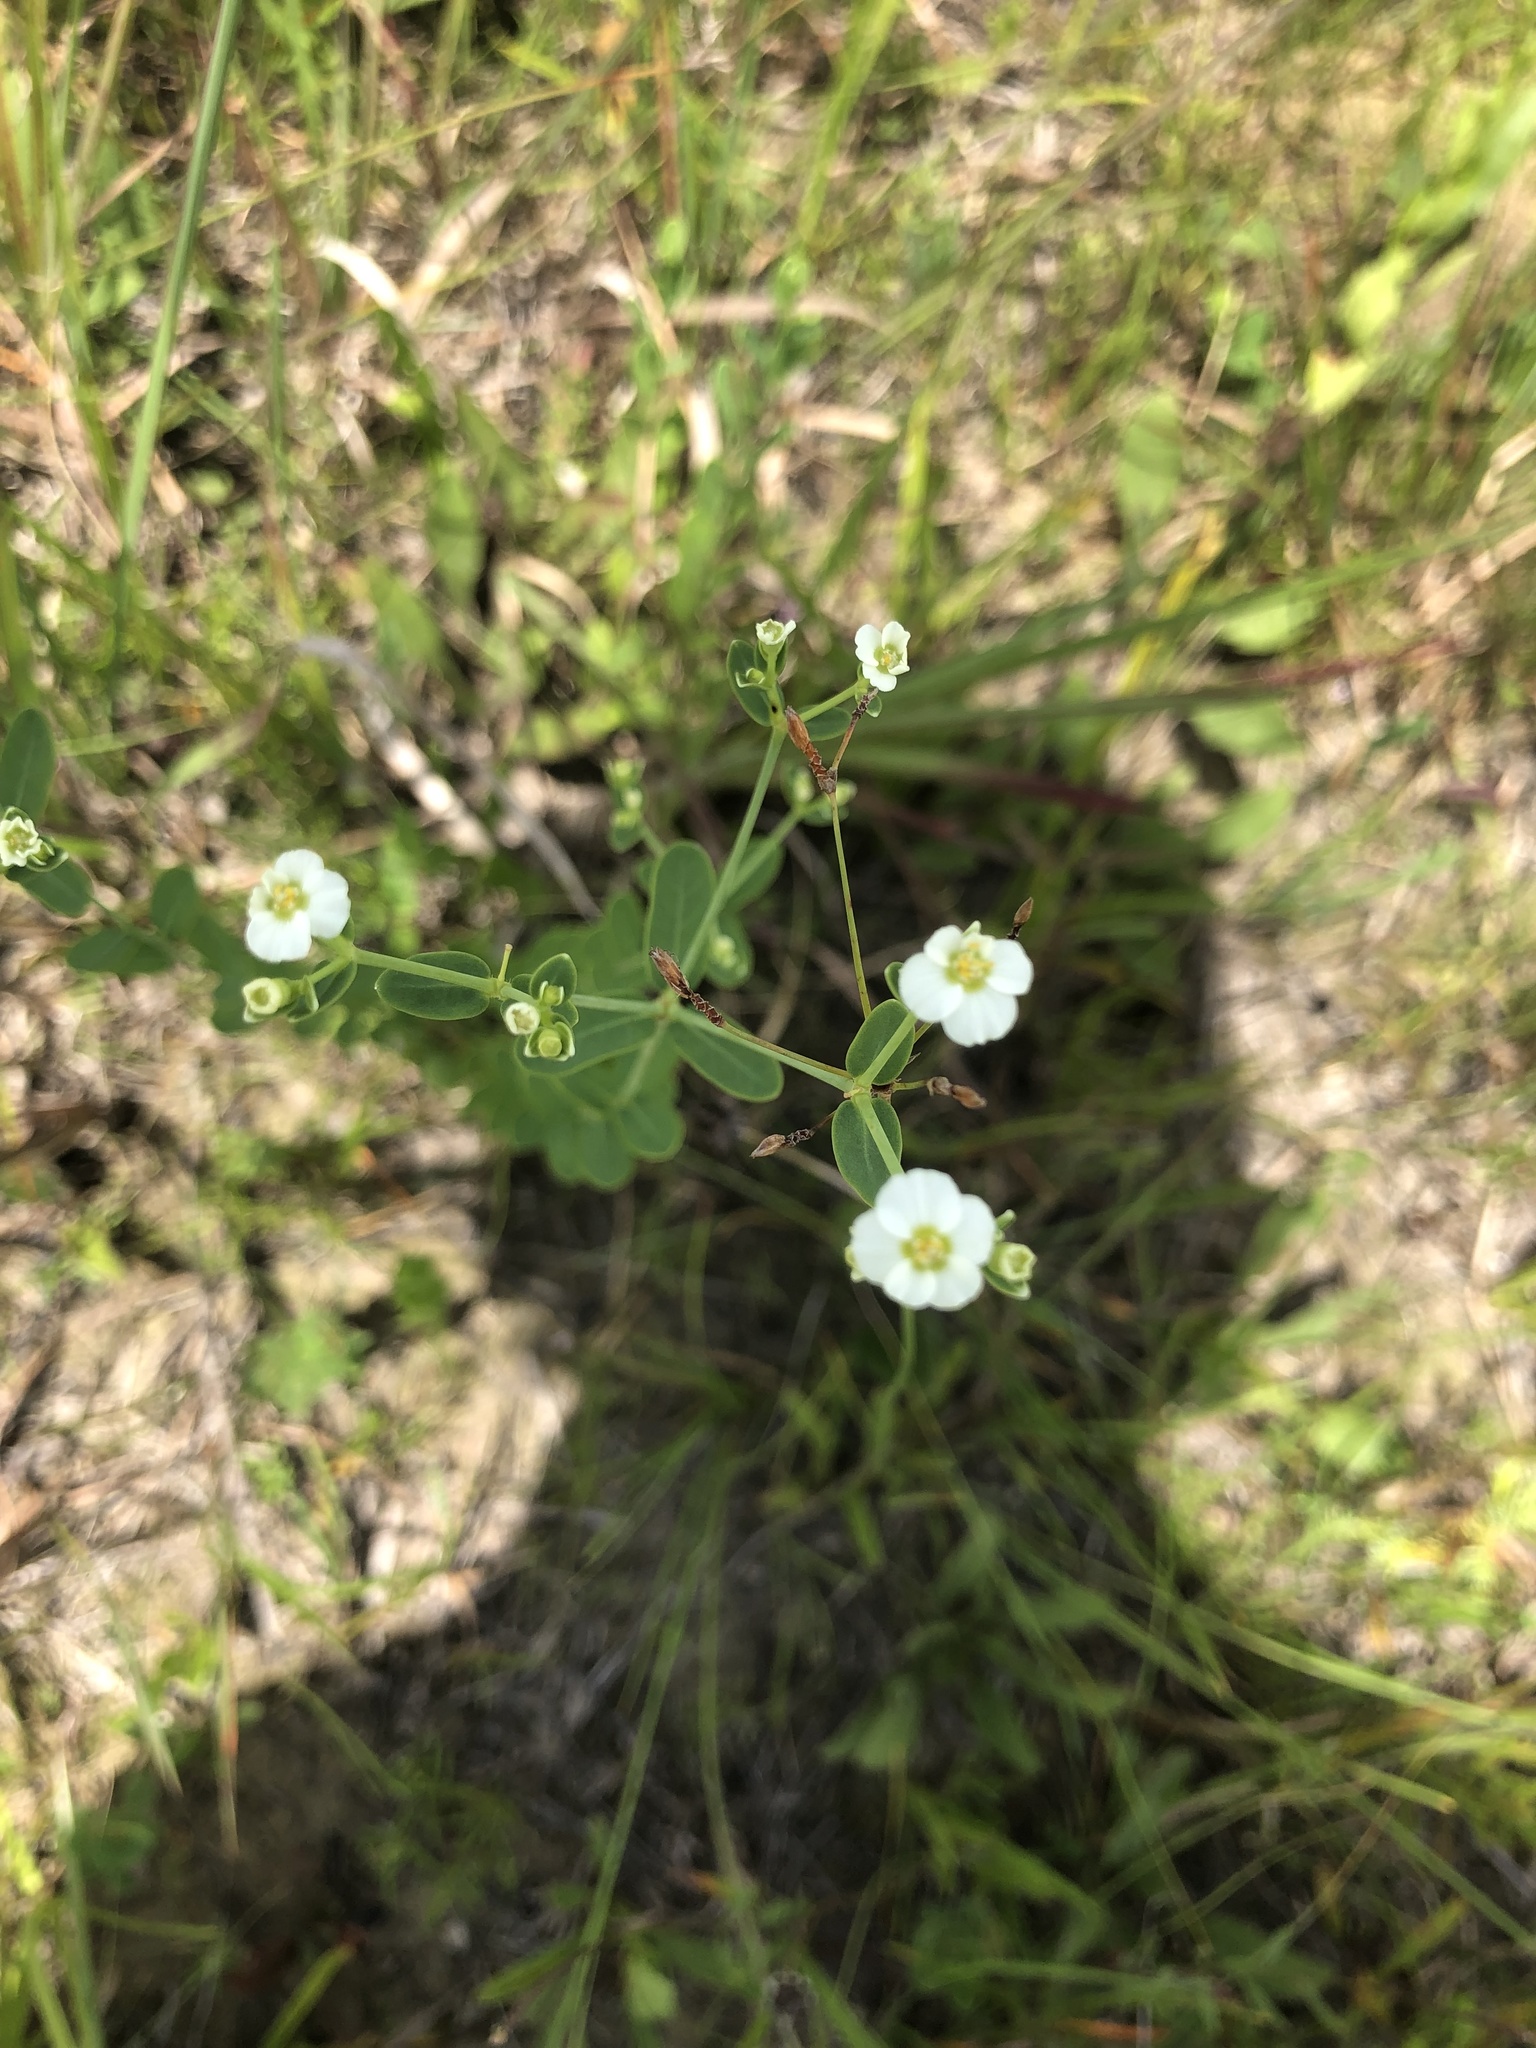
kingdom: Plantae
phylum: Tracheophyta
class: Magnoliopsida
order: Malpighiales
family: Euphorbiaceae
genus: Euphorbia
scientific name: Euphorbia corollata
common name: Flowering spurge
